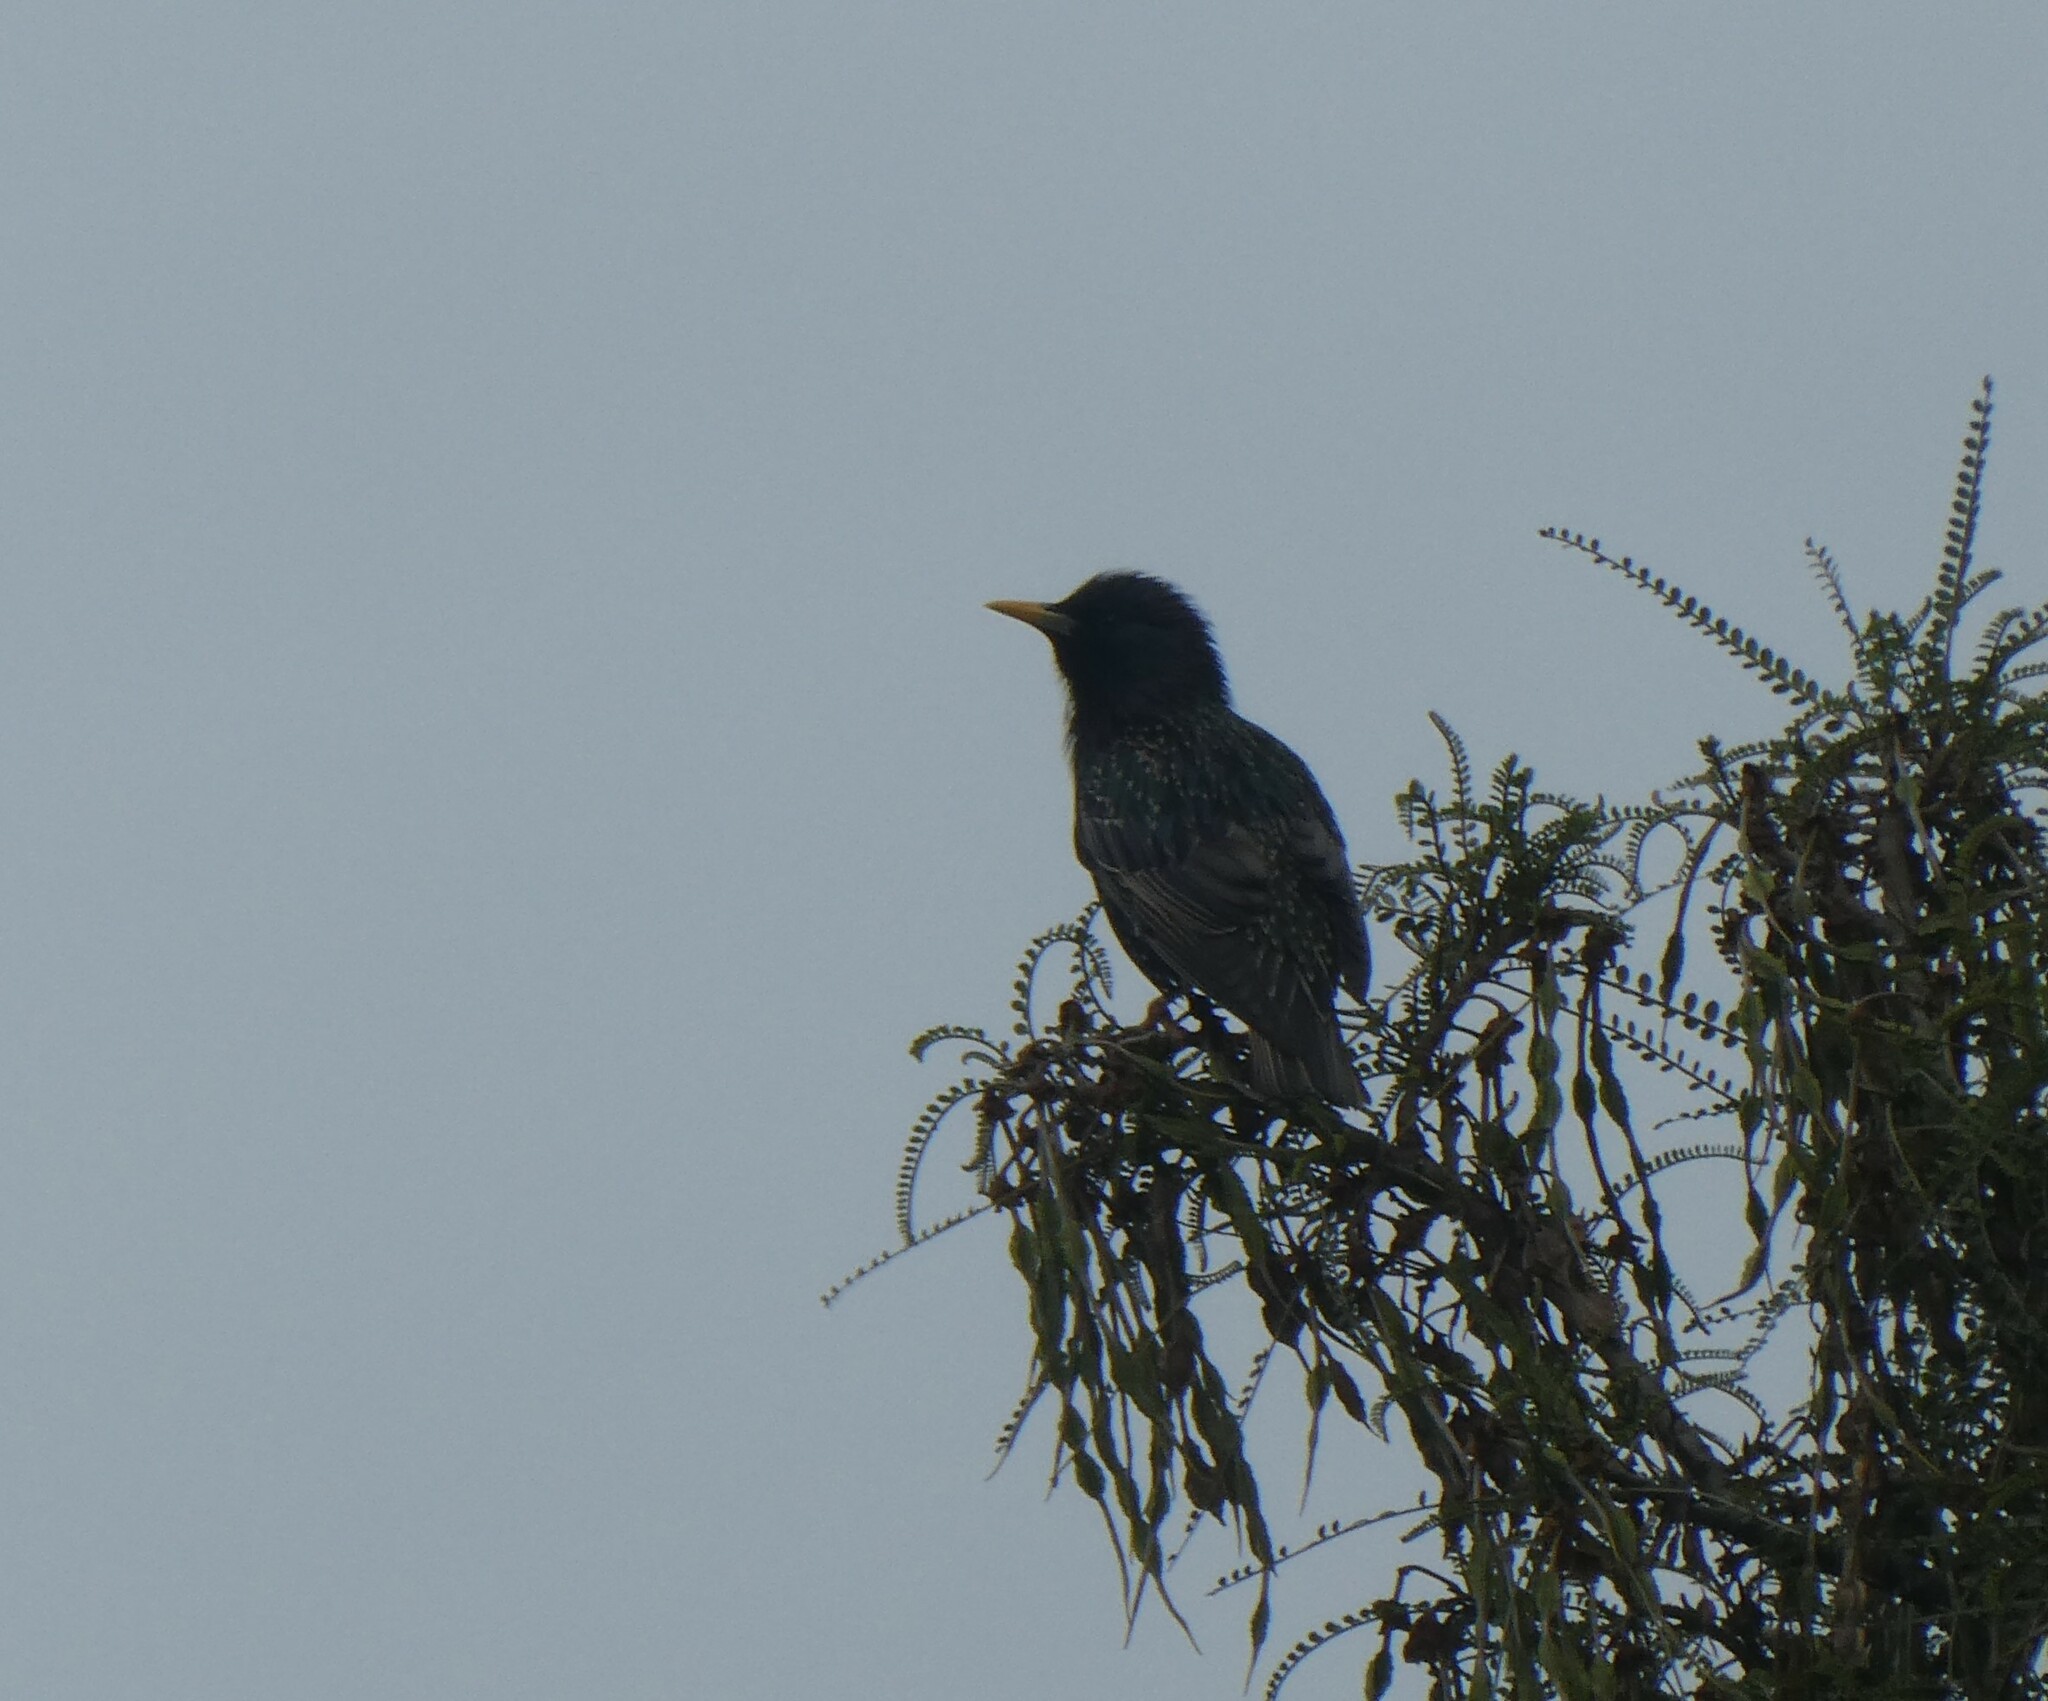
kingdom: Animalia
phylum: Chordata
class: Aves
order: Passeriformes
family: Sturnidae
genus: Sturnus
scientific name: Sturnus vulgaris
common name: Common starling
